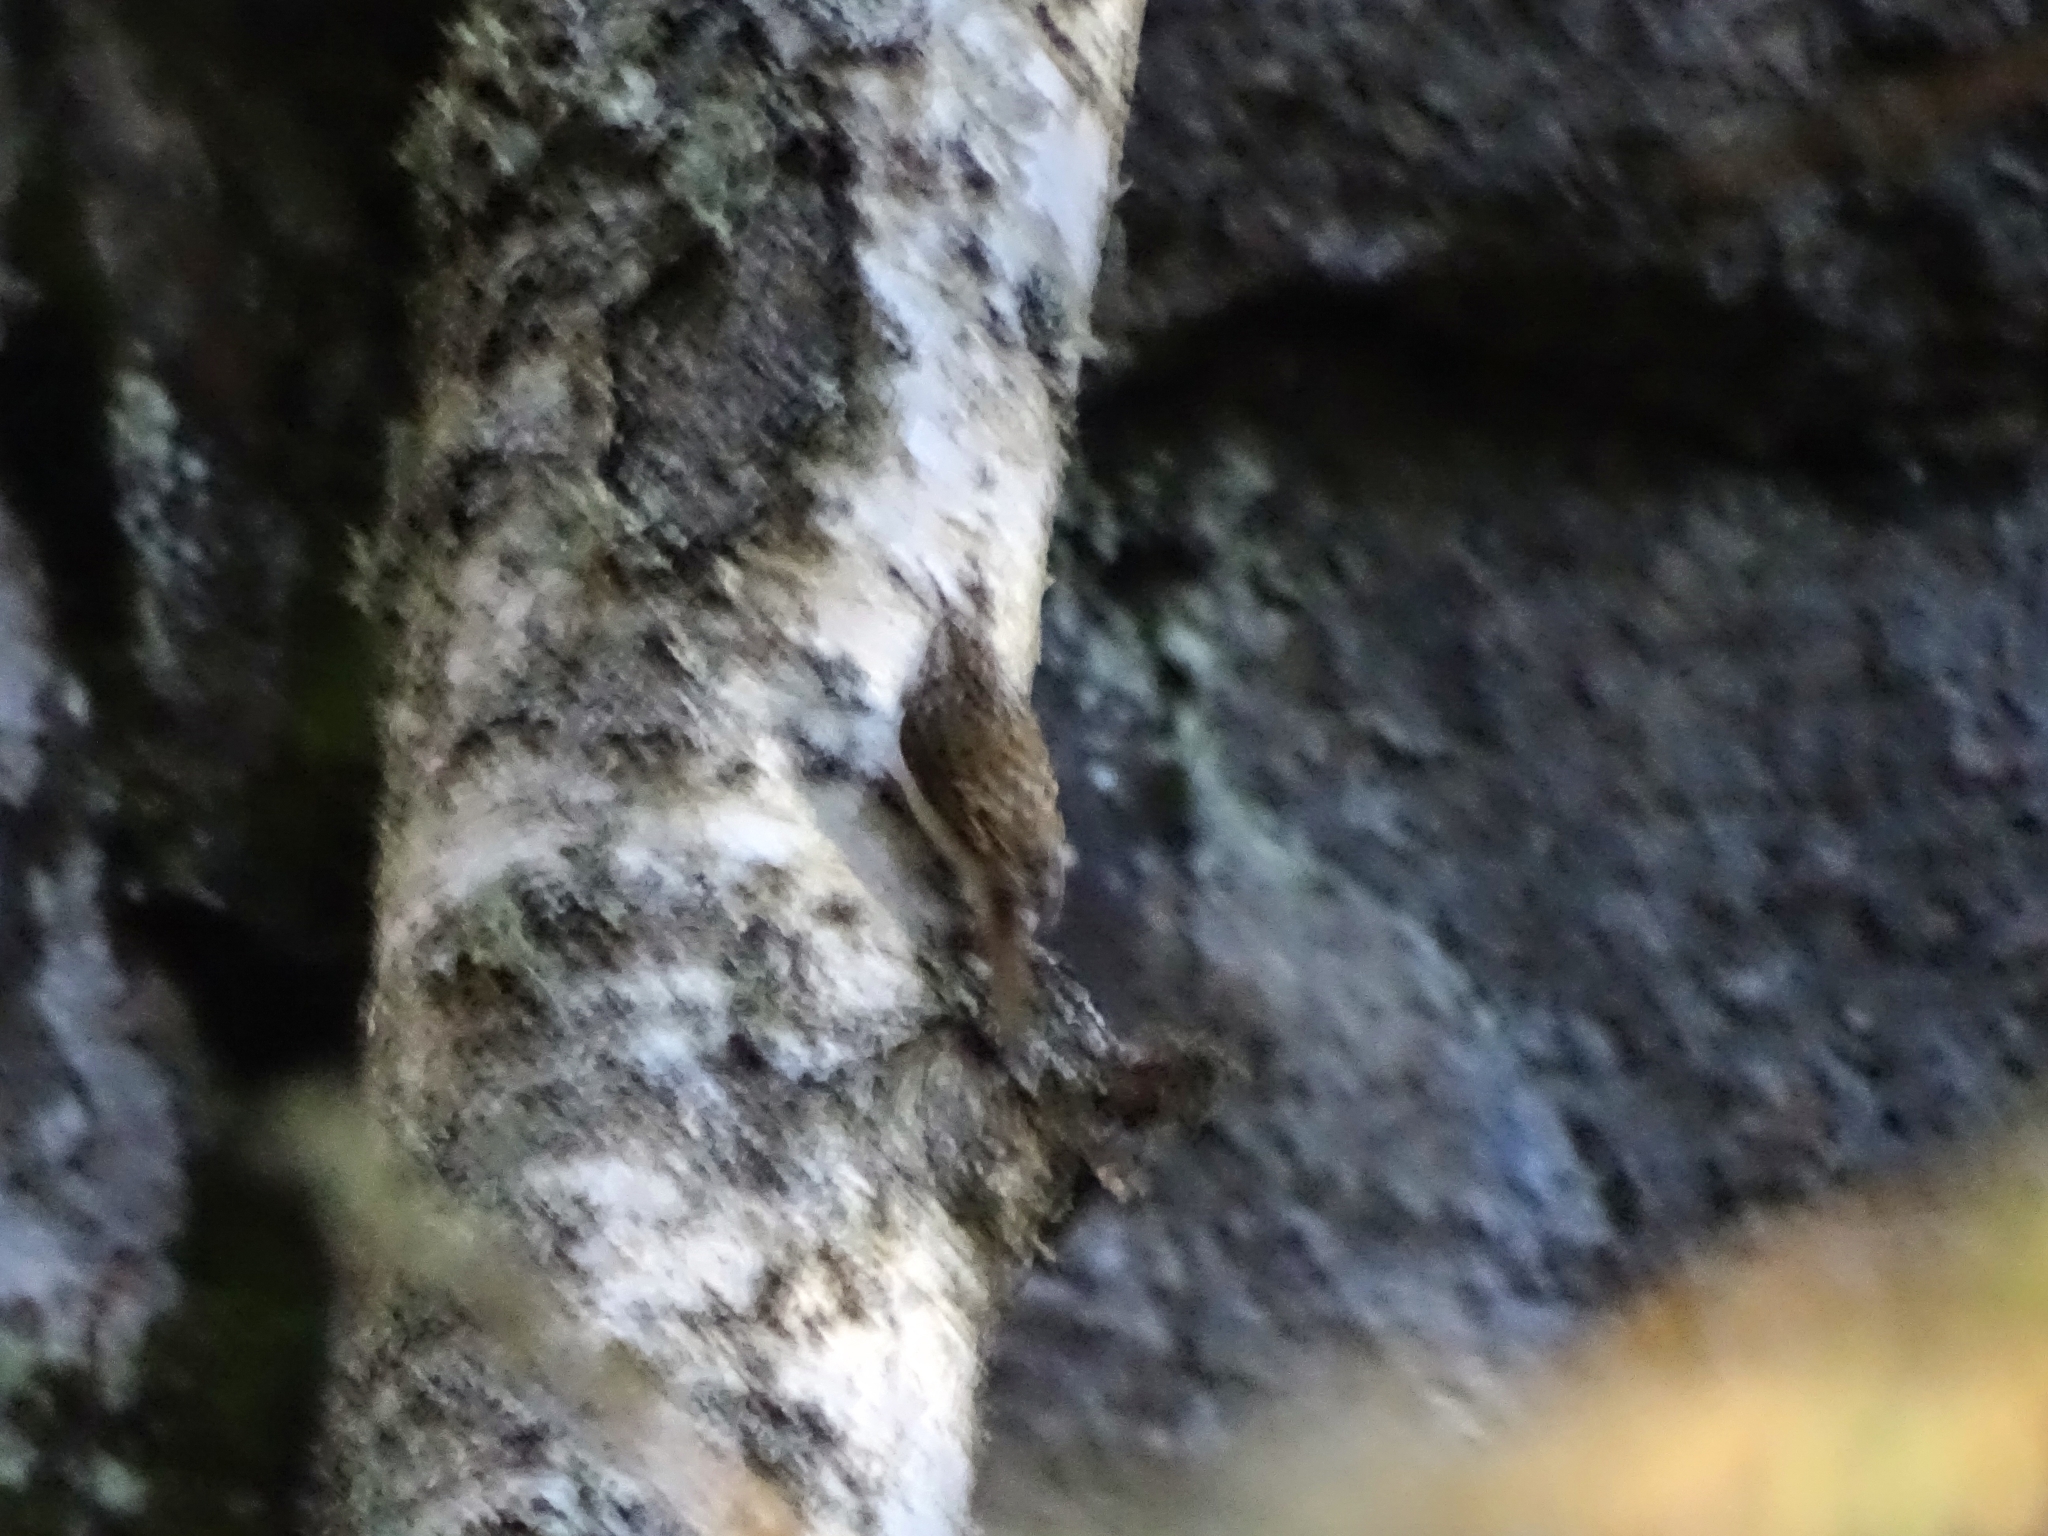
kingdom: Animalia
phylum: Chordata
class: Aves
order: Passeriformes
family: Certhiidae
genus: Certhia
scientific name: Certhia familiaris
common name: Eurasian treecreeper
